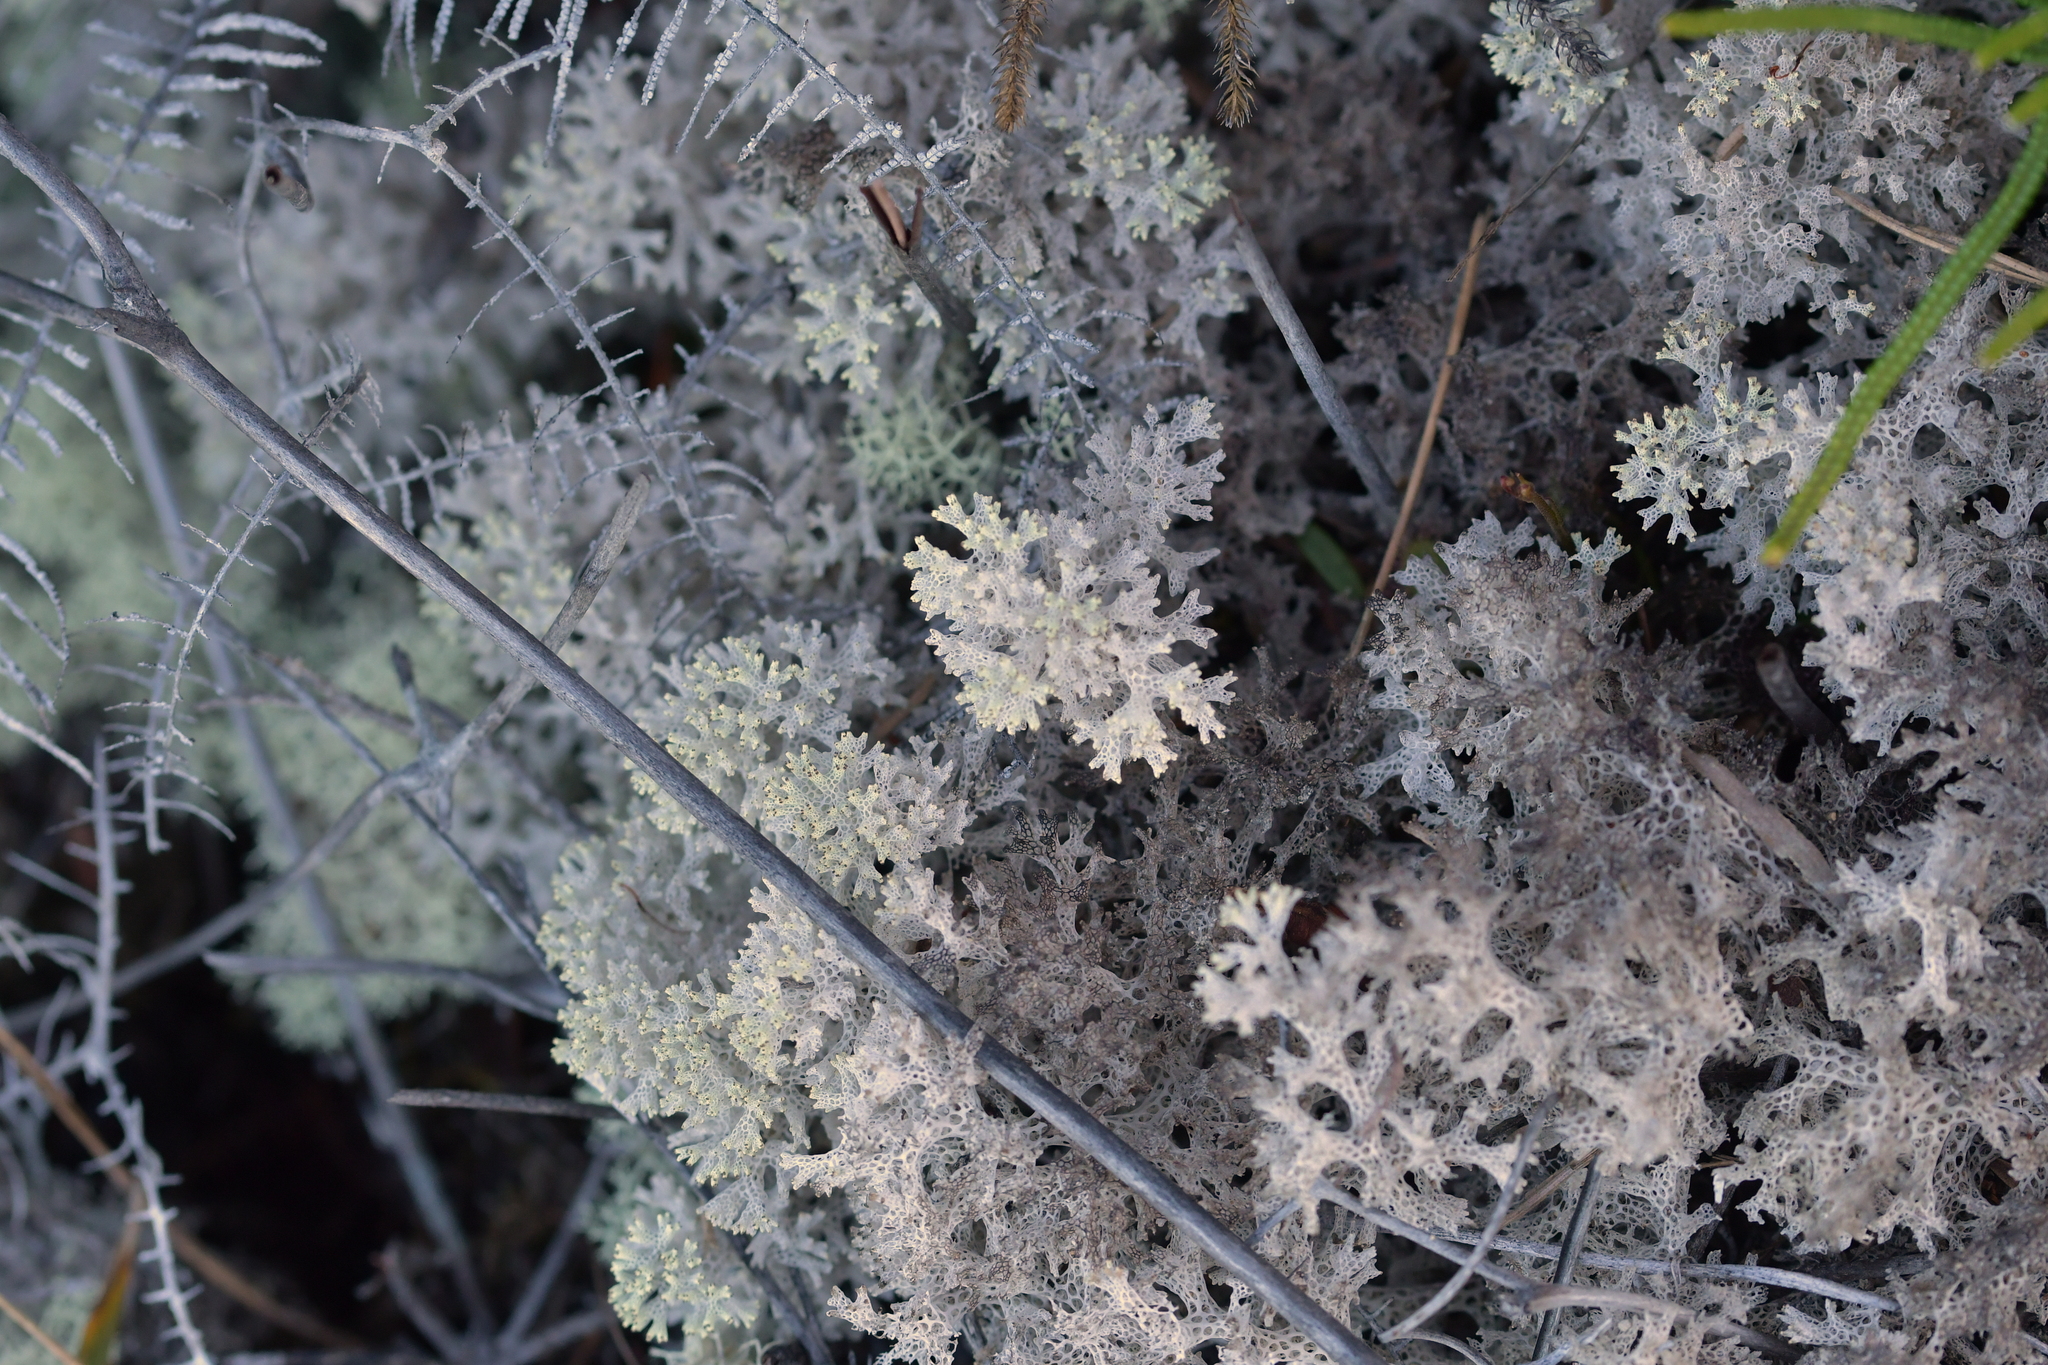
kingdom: Fungi
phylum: Ascomycota
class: Lecanoromycetes
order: Lecanorales
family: Cladoniaceae
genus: Pulchrocladia
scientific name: Pulchrocladia retipora
